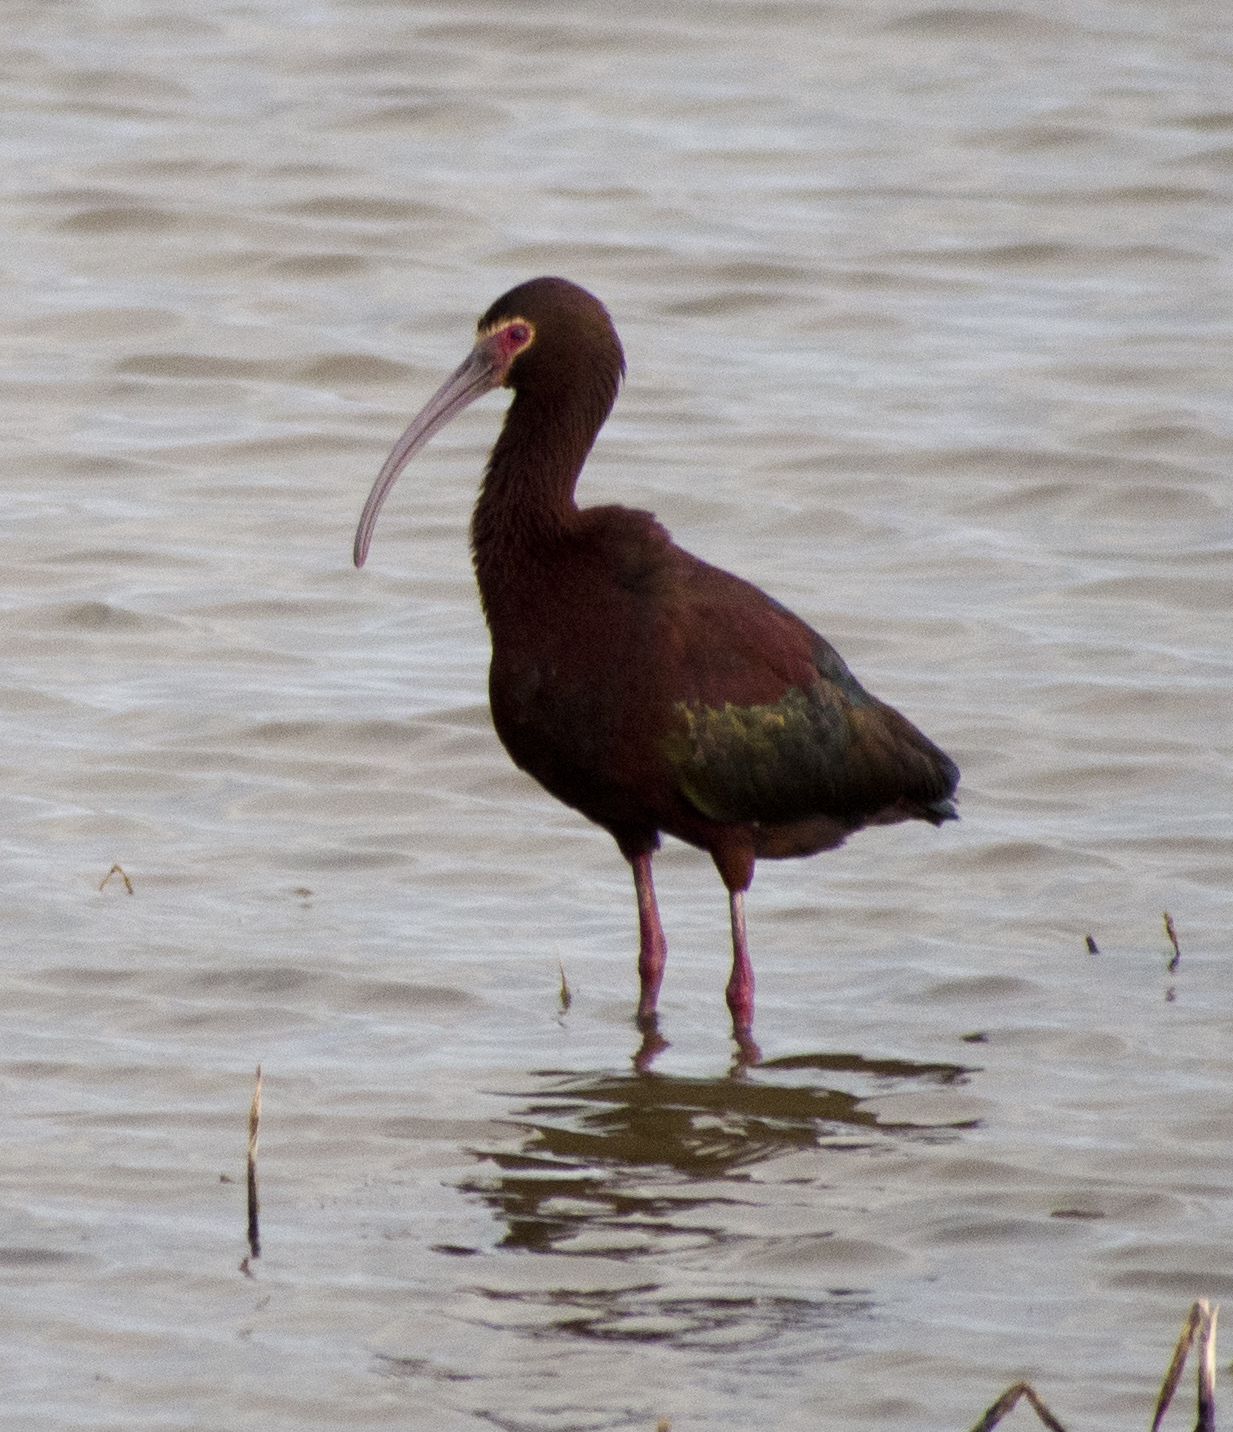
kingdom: Animalia
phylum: Chordata
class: Aves
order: Pelecaniformes
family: Threskiornithidae
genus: Plegadis
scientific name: Plegadis chihi
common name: White-faced ibis
